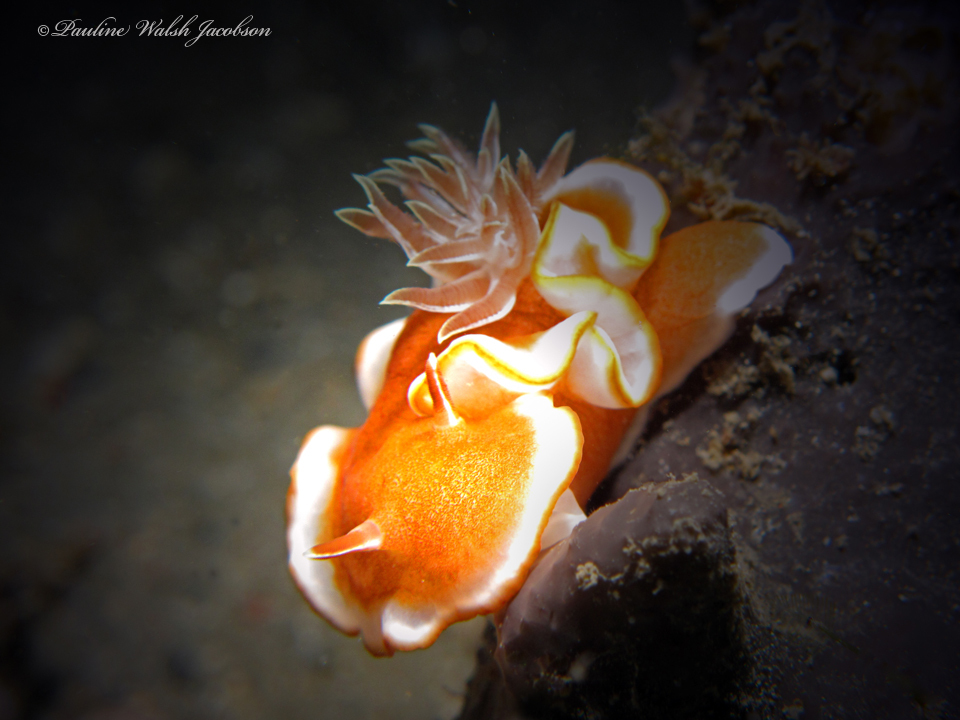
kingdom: Animalia
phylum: Mollusca
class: Gastropoda
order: Nudibranchia
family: Chromodorididae
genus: Glossodoris
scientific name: Glossodoris rufomarginata
